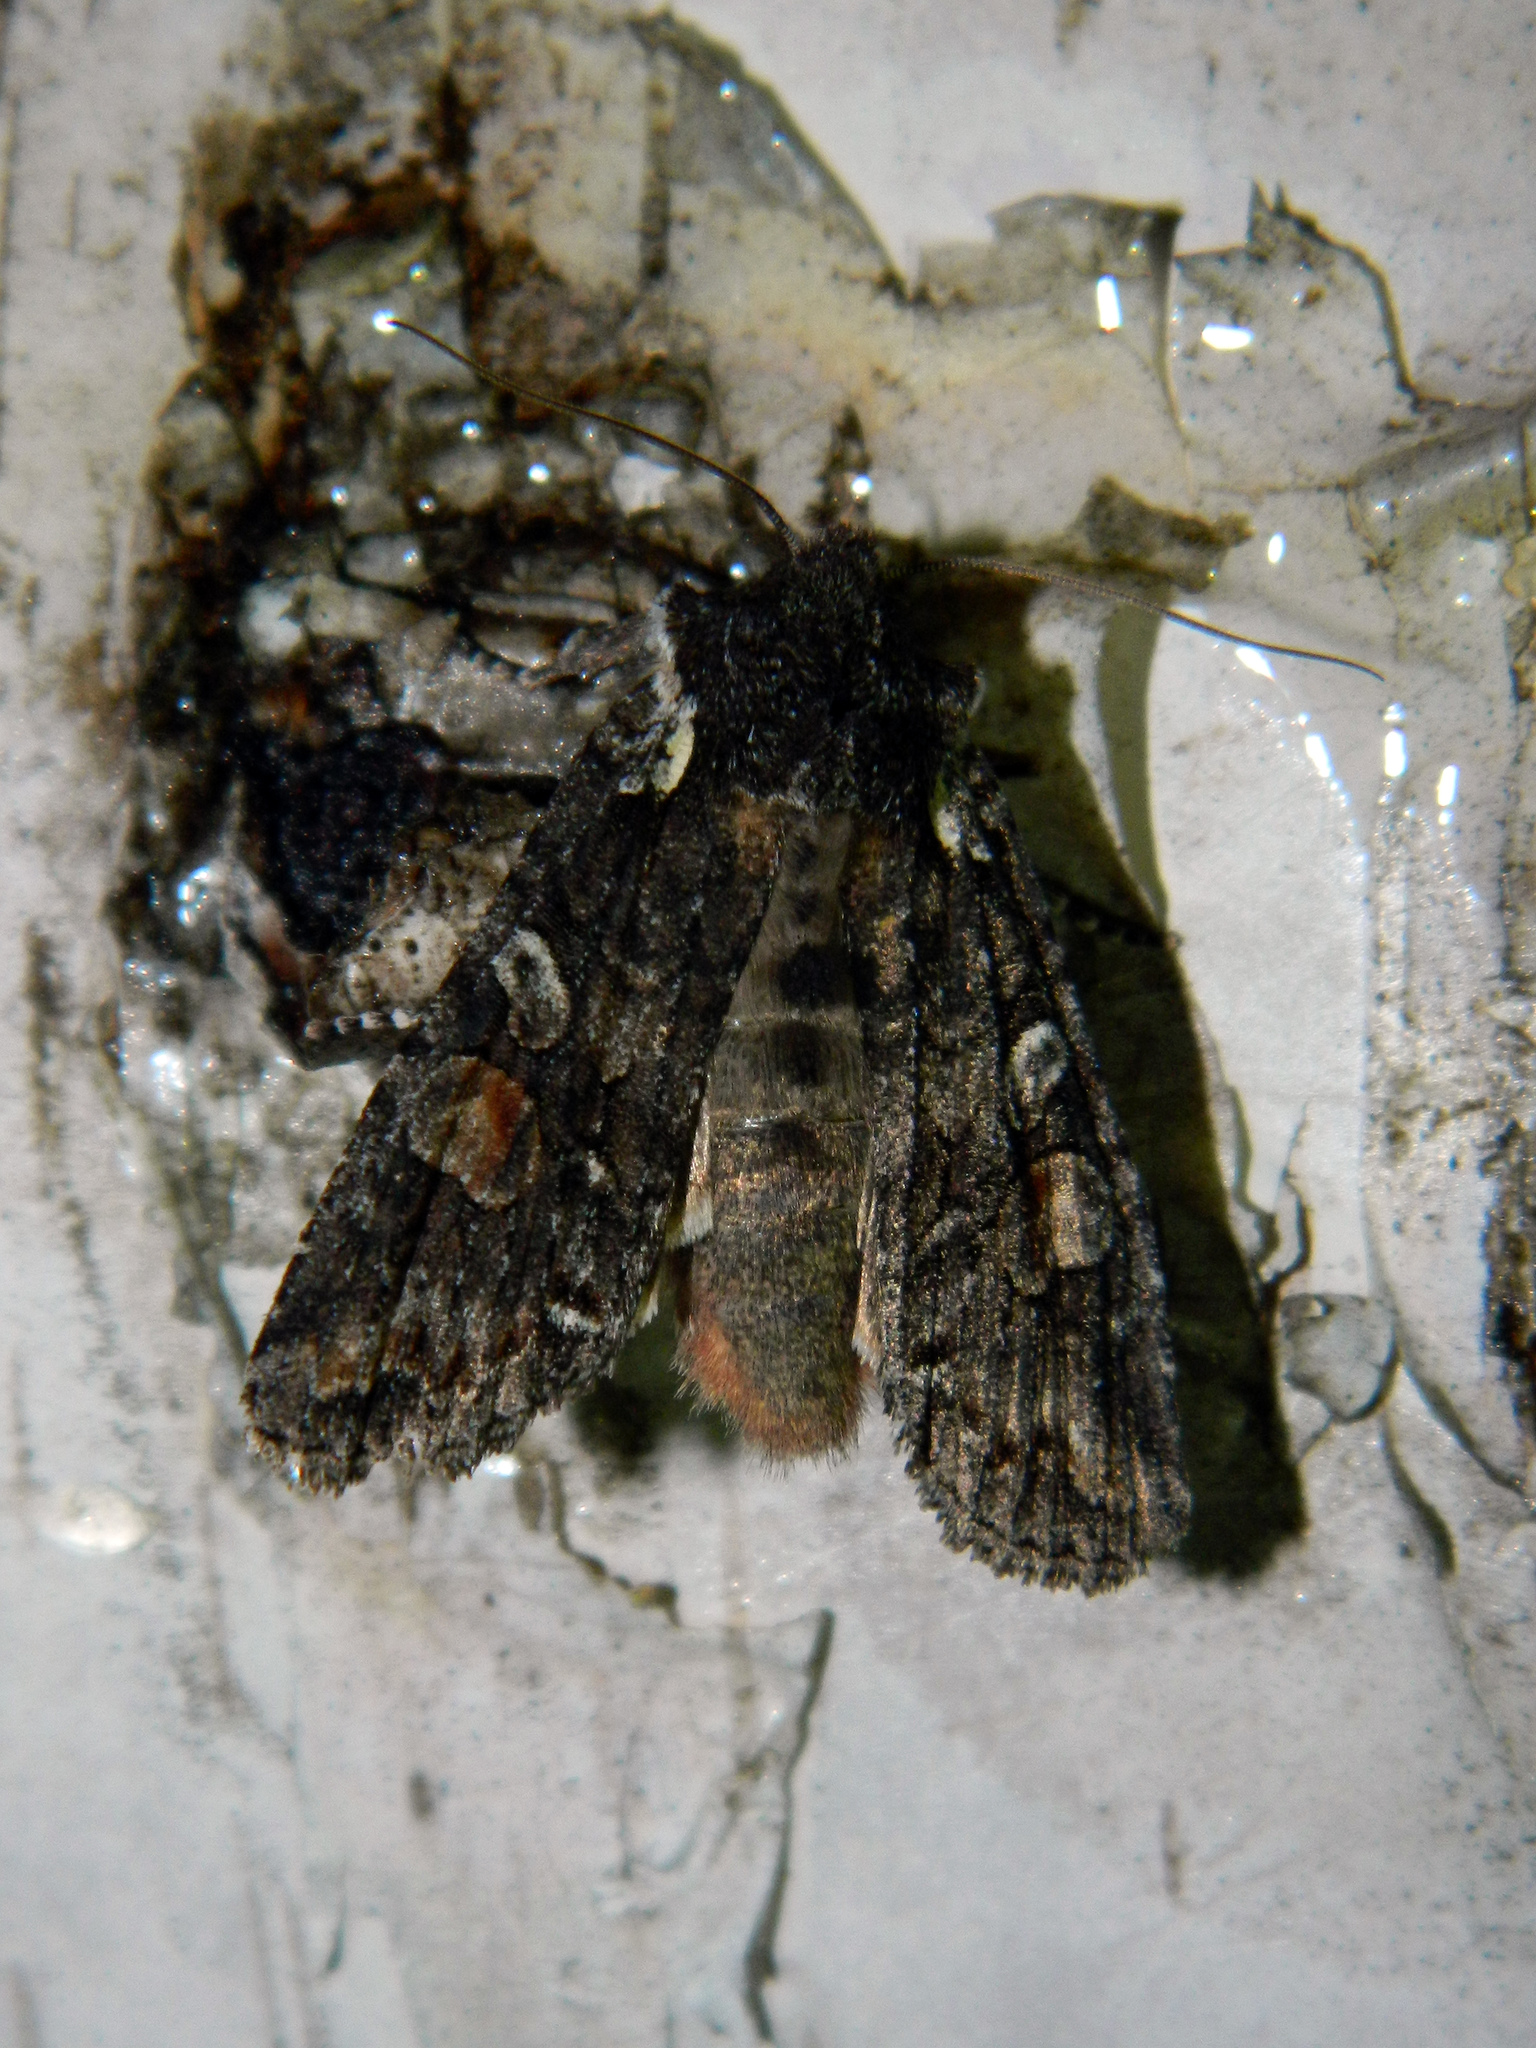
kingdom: Animalia
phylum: Arthropoda
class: Insecta
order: Lepidoptera
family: Noctuidae
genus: Lithophane
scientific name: Lithophane pexata
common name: Plush-naped pinion moth
